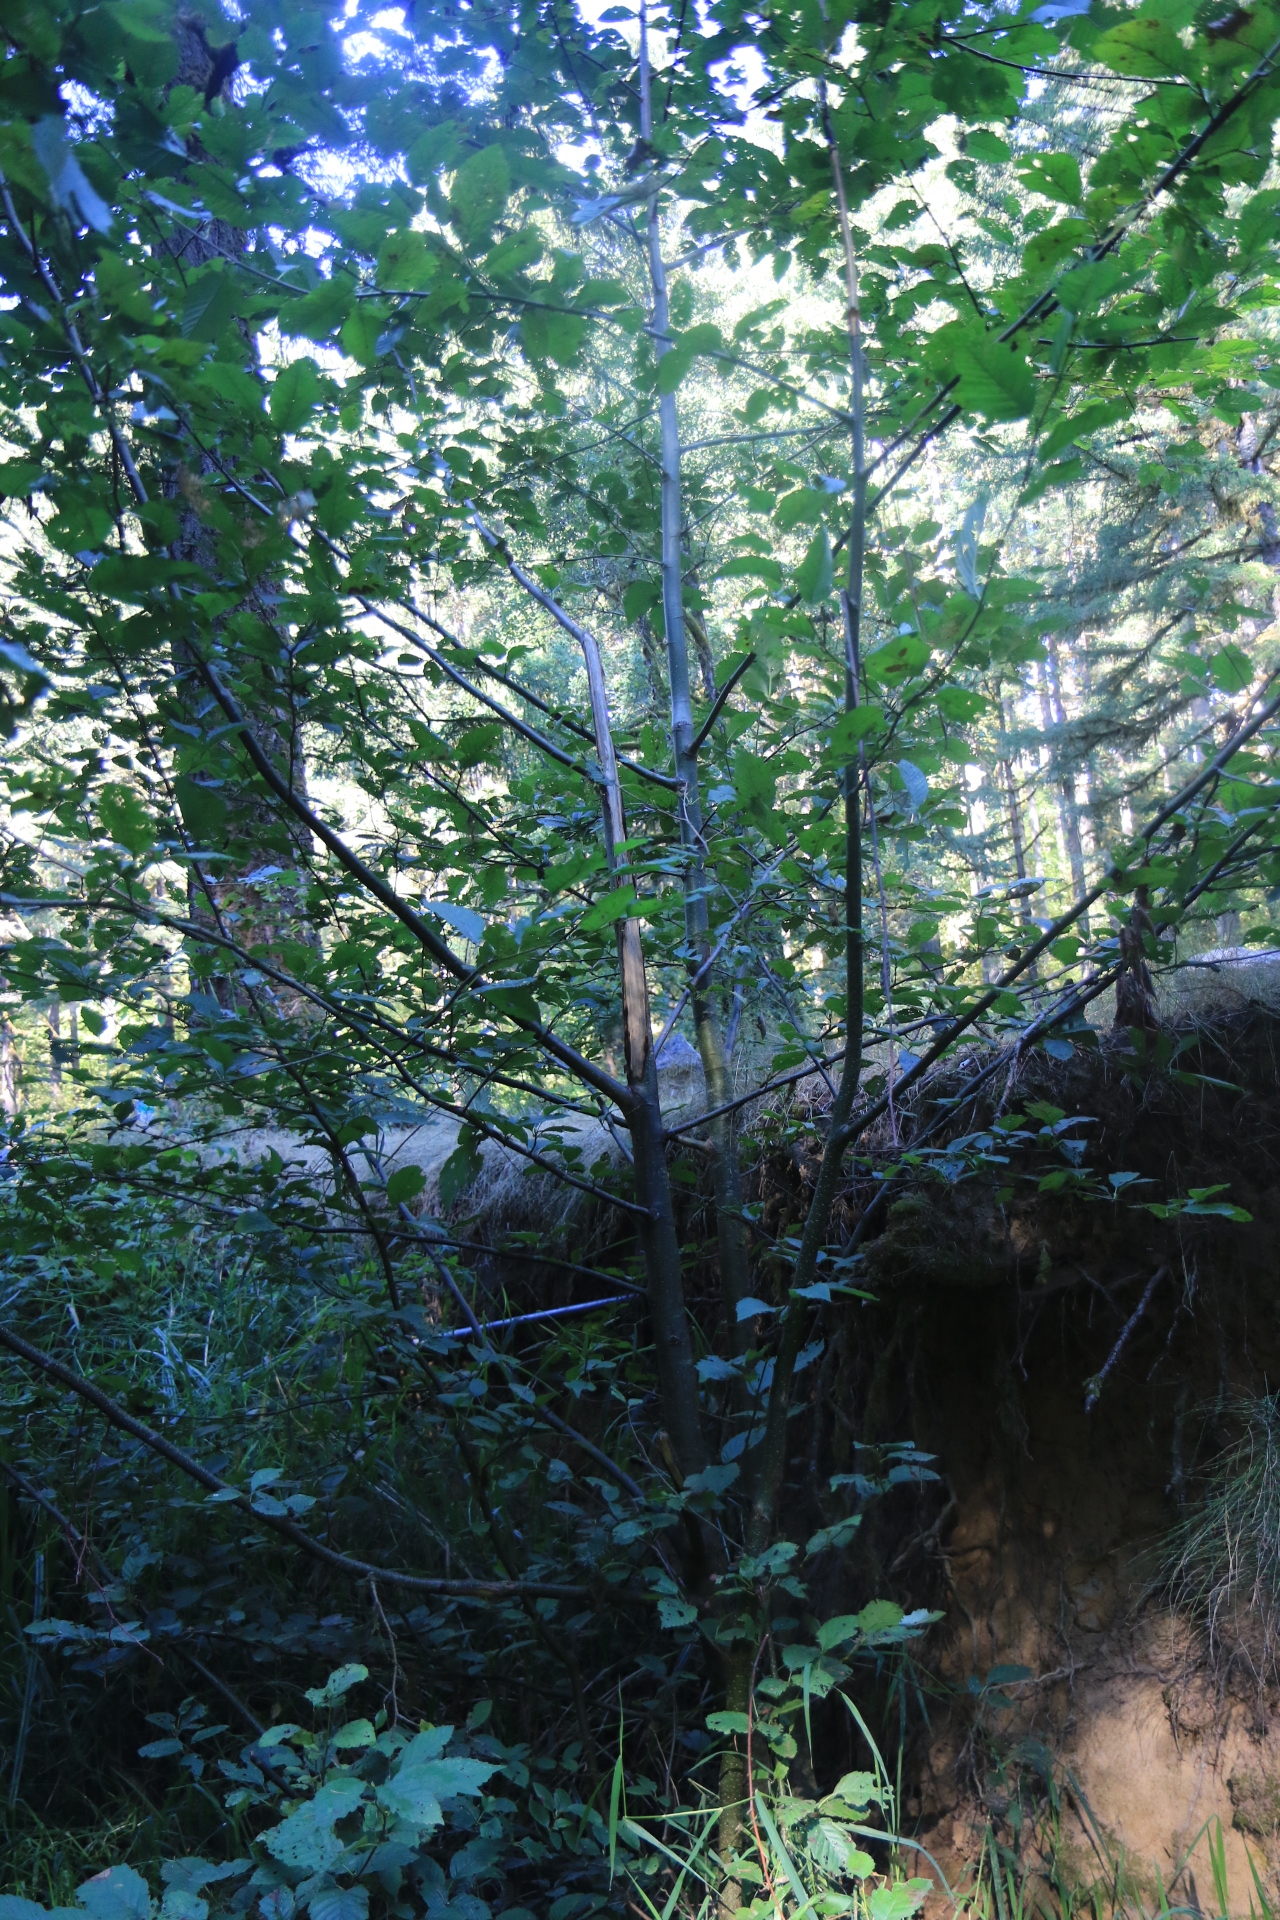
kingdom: Plantae
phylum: Tracheophyta
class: Magnoliopsida
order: Asterales
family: Asteraceae
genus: Lapsana
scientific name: Lapsana communis
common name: Nipplewort
